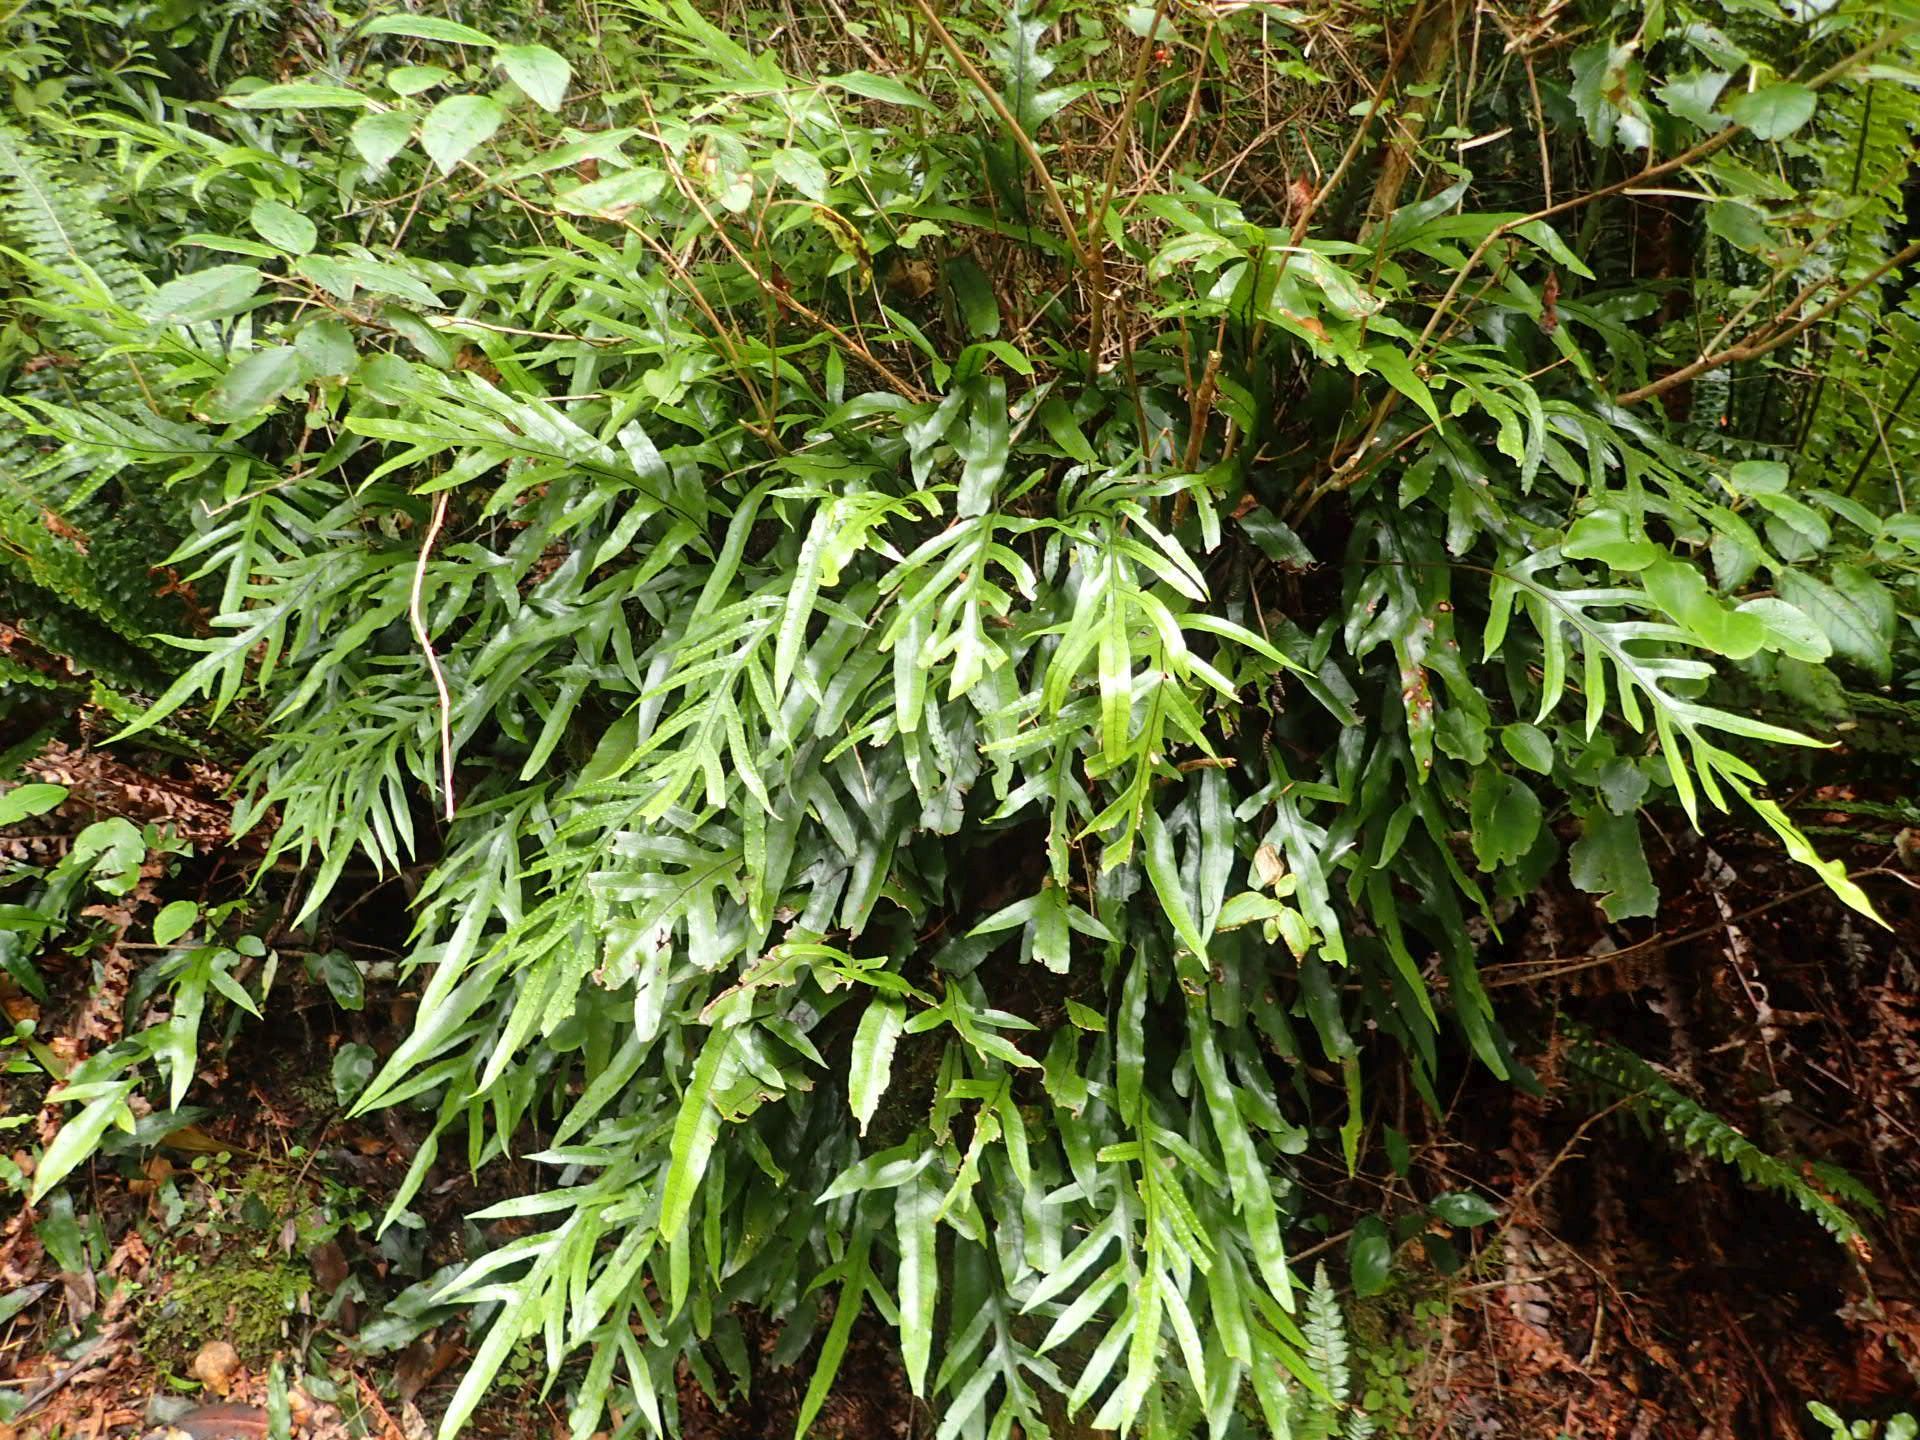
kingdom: Plantae
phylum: Tracheophyta
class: Polypodiopsida
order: Polypodiales
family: Polypodiaceae
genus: Lecanopteris
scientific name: Lecanopteris pustulata
